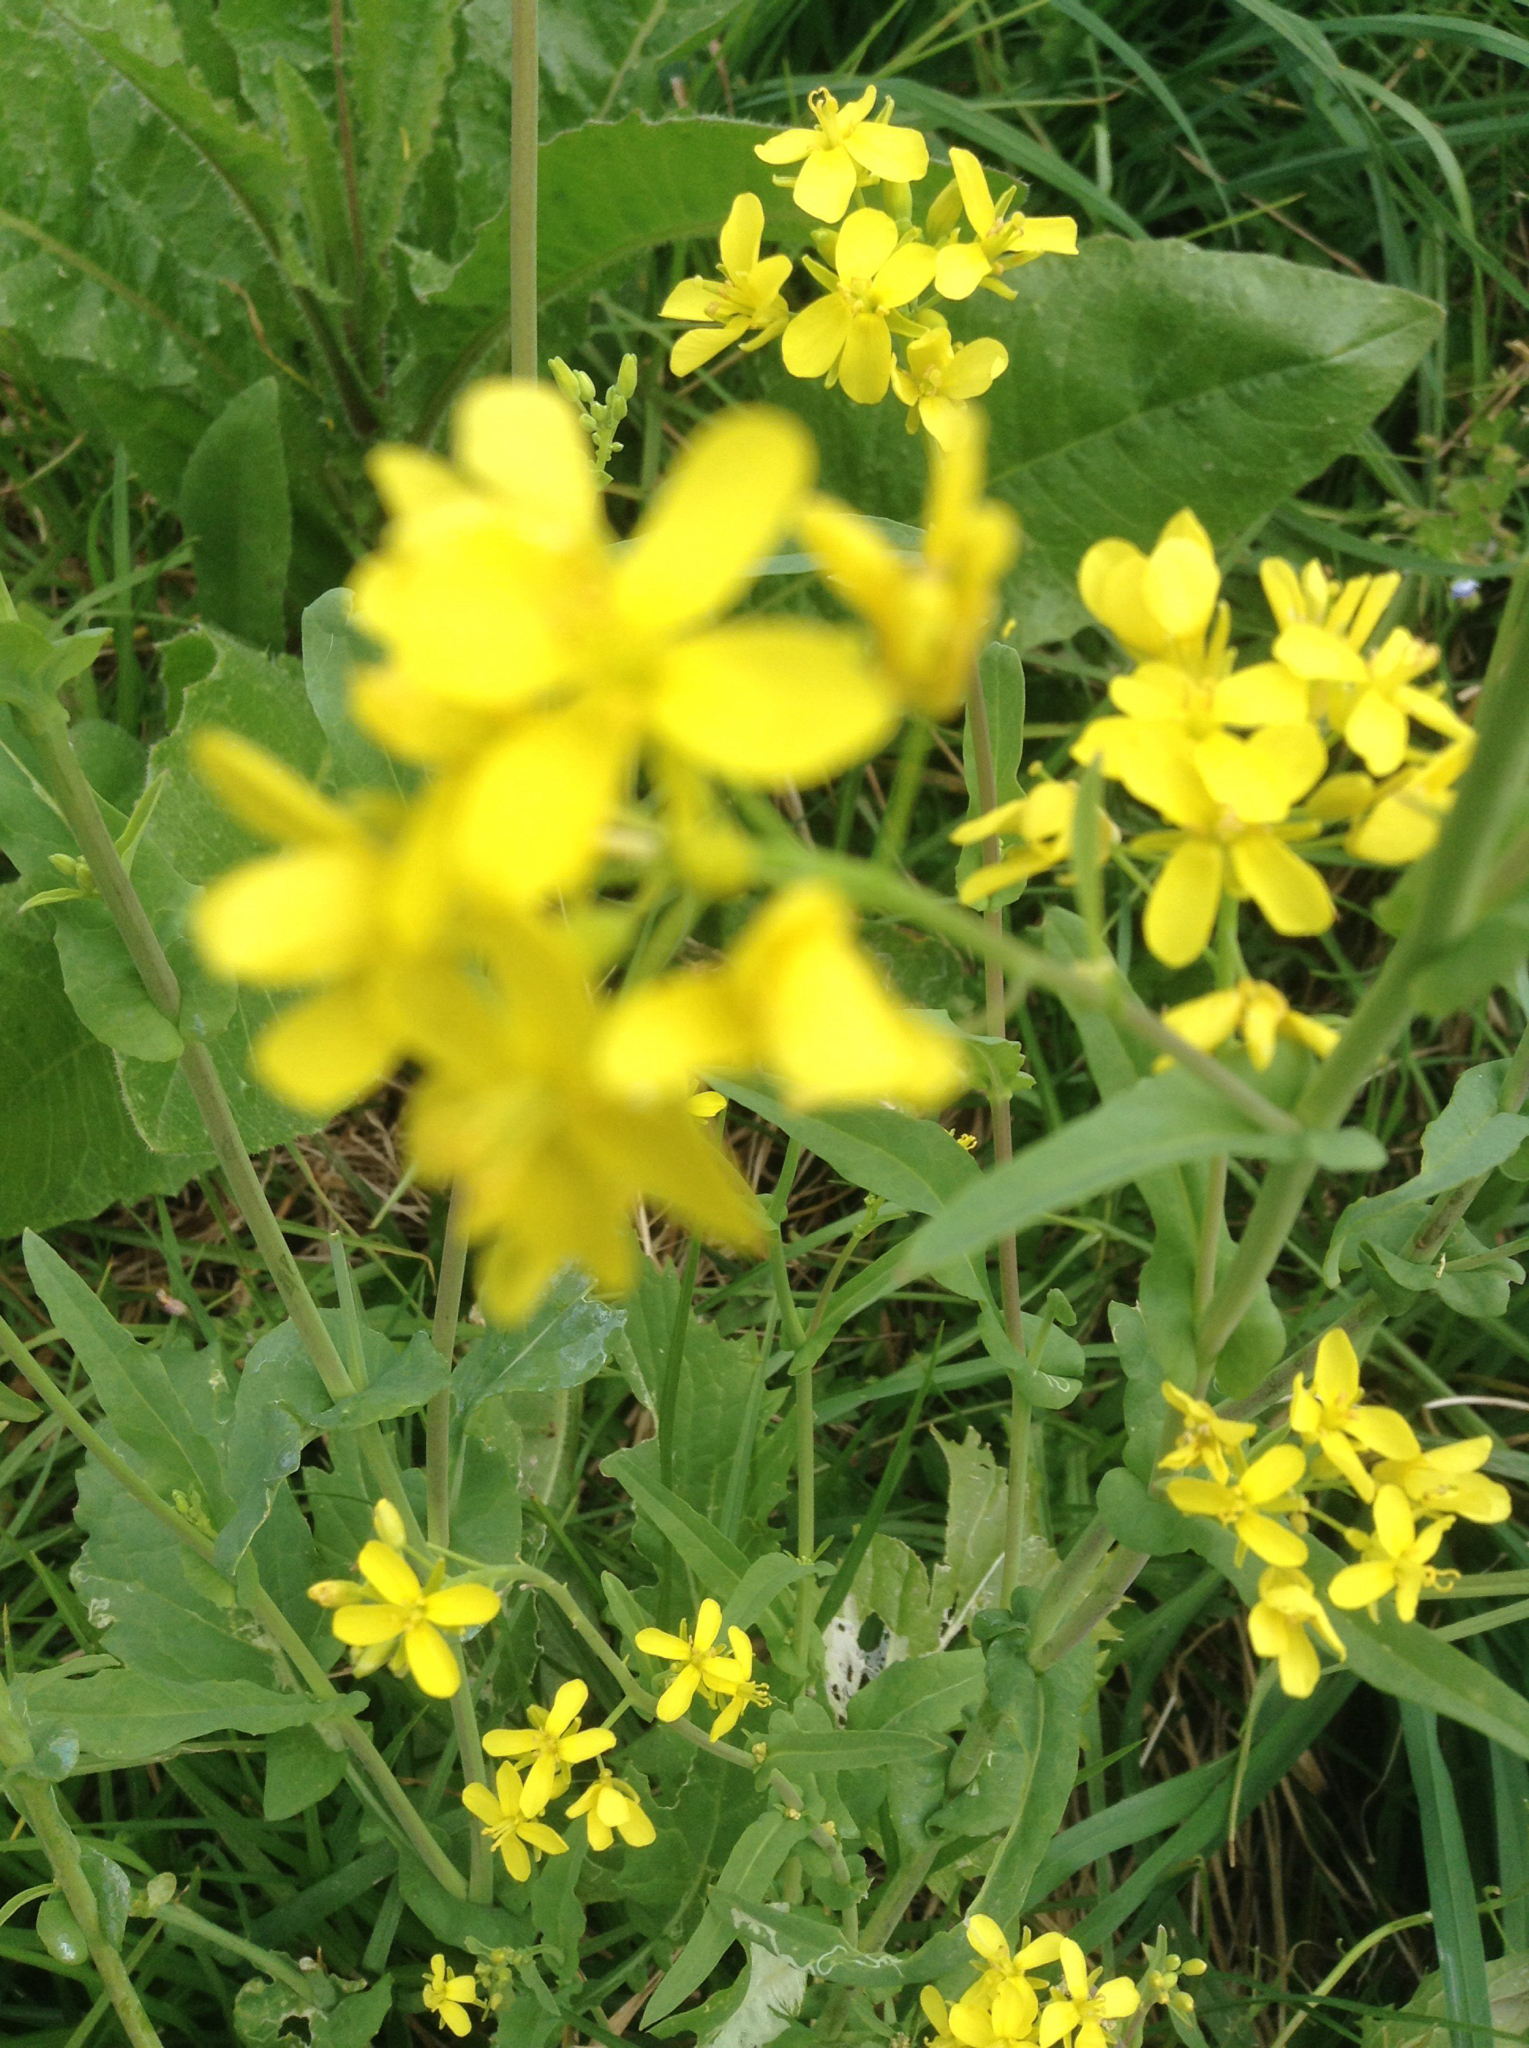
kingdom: Plantae
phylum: Tracheophyta
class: Magnoliopsida
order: Brassicales
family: Brassicaceae
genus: Brassica
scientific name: Brassica rapa
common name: Field mustard
